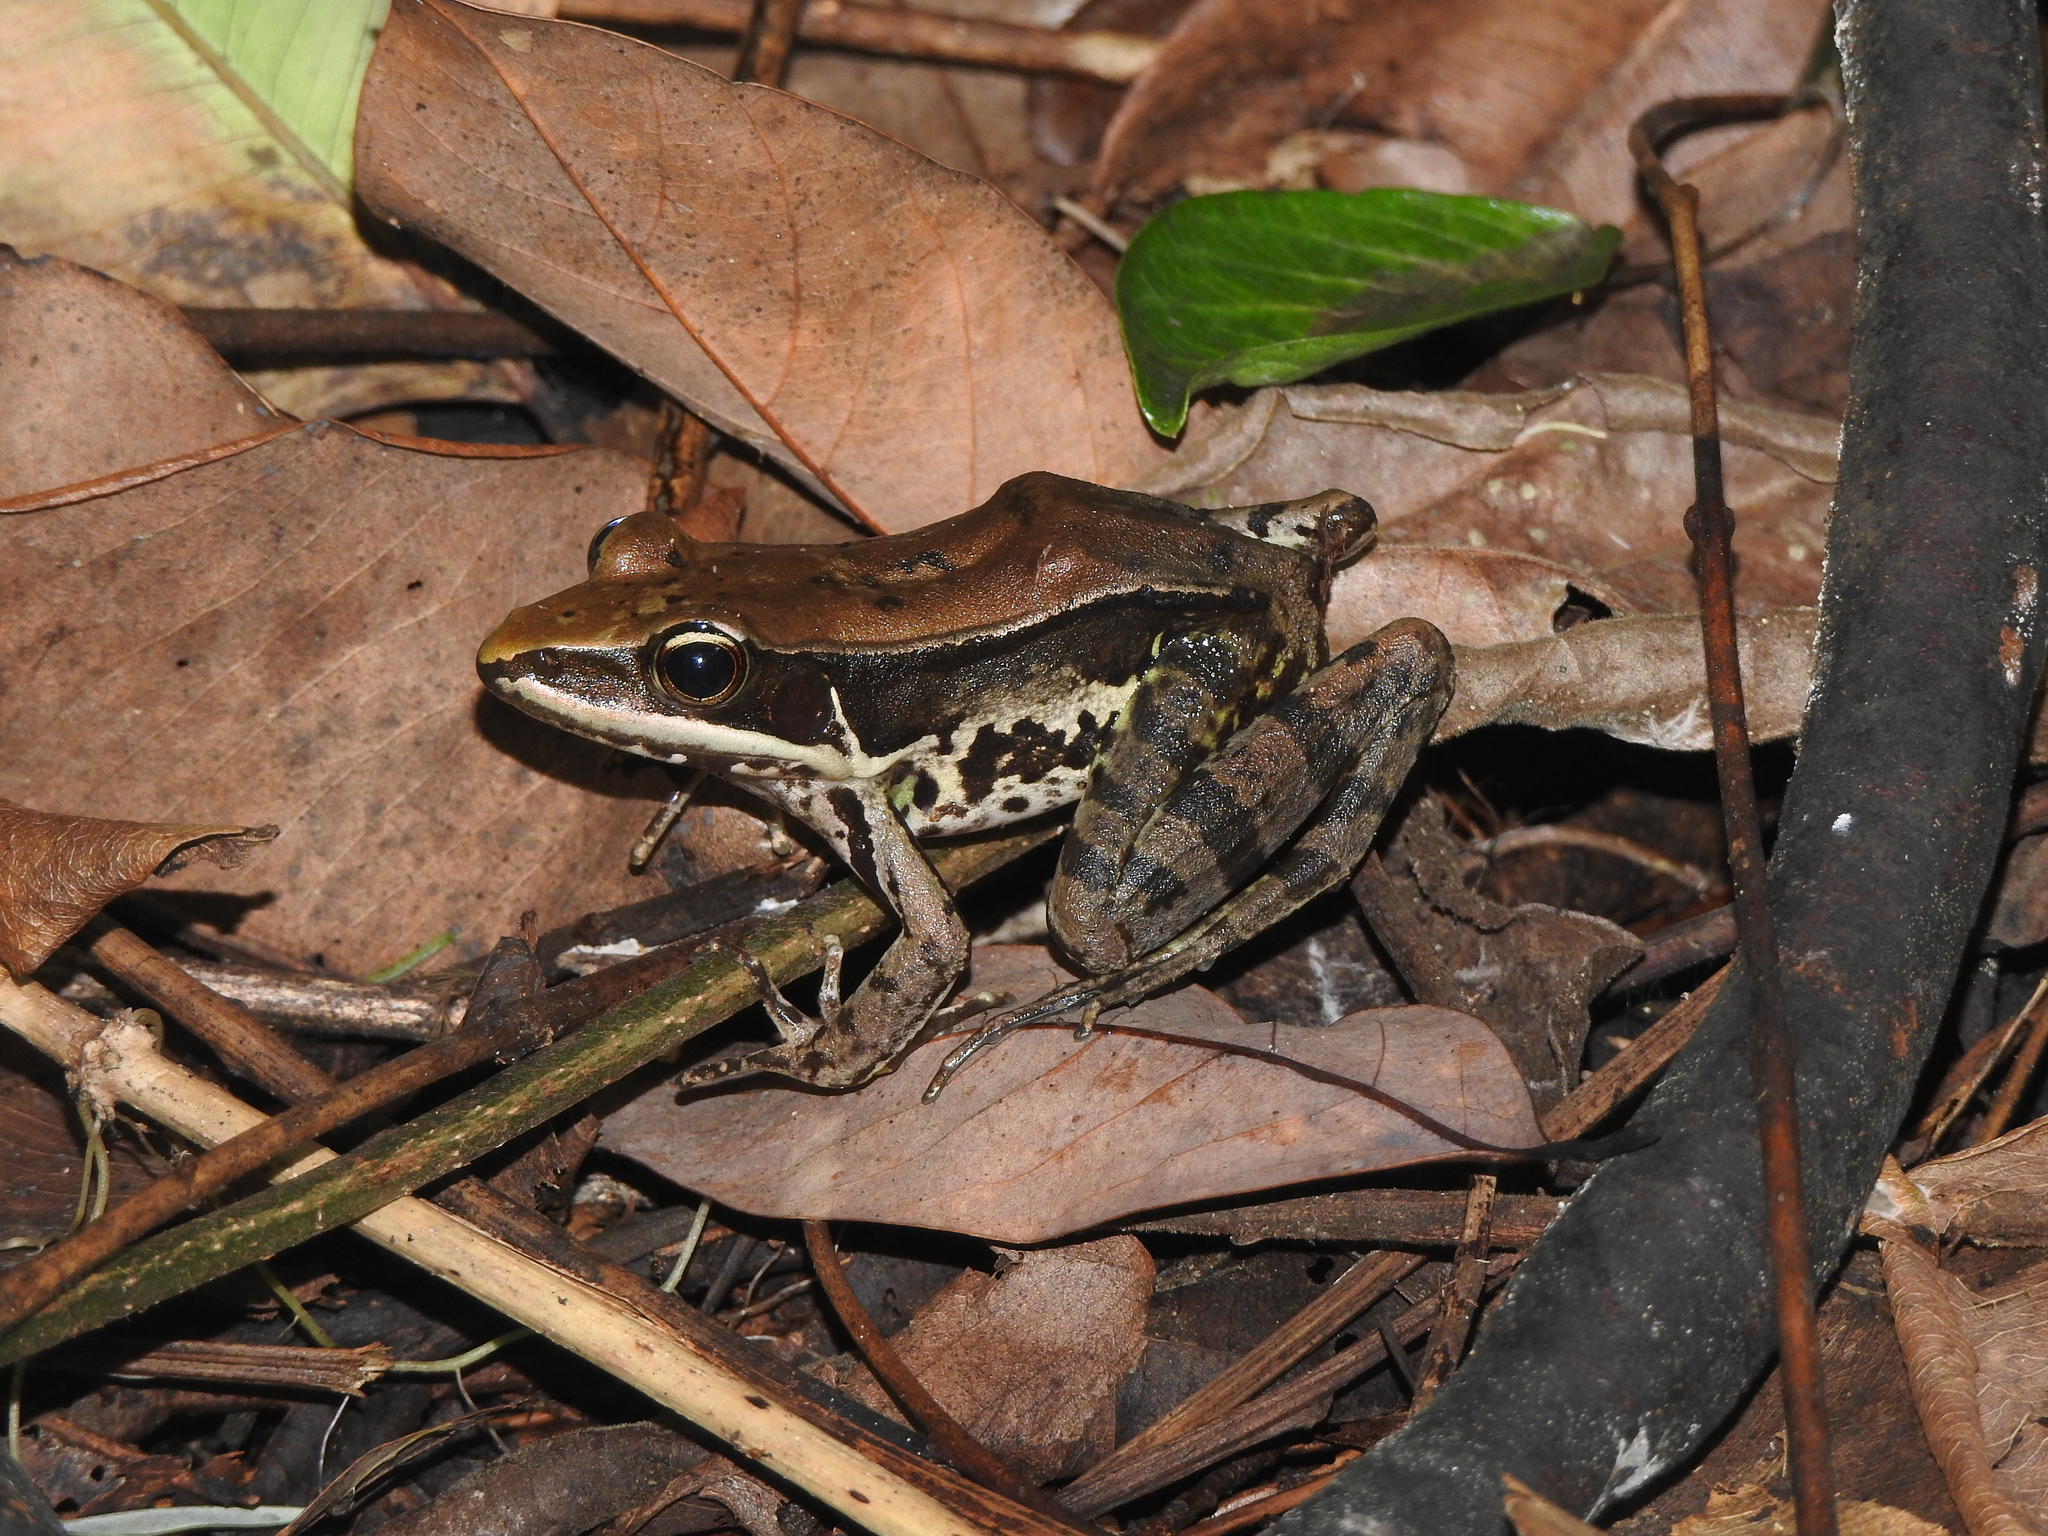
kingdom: Animalia
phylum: Chordata
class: Amphibia
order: Anura
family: Ranidae
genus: Sylvirana
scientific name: Sylvirana guentheri
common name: Guenther's amoy frog
